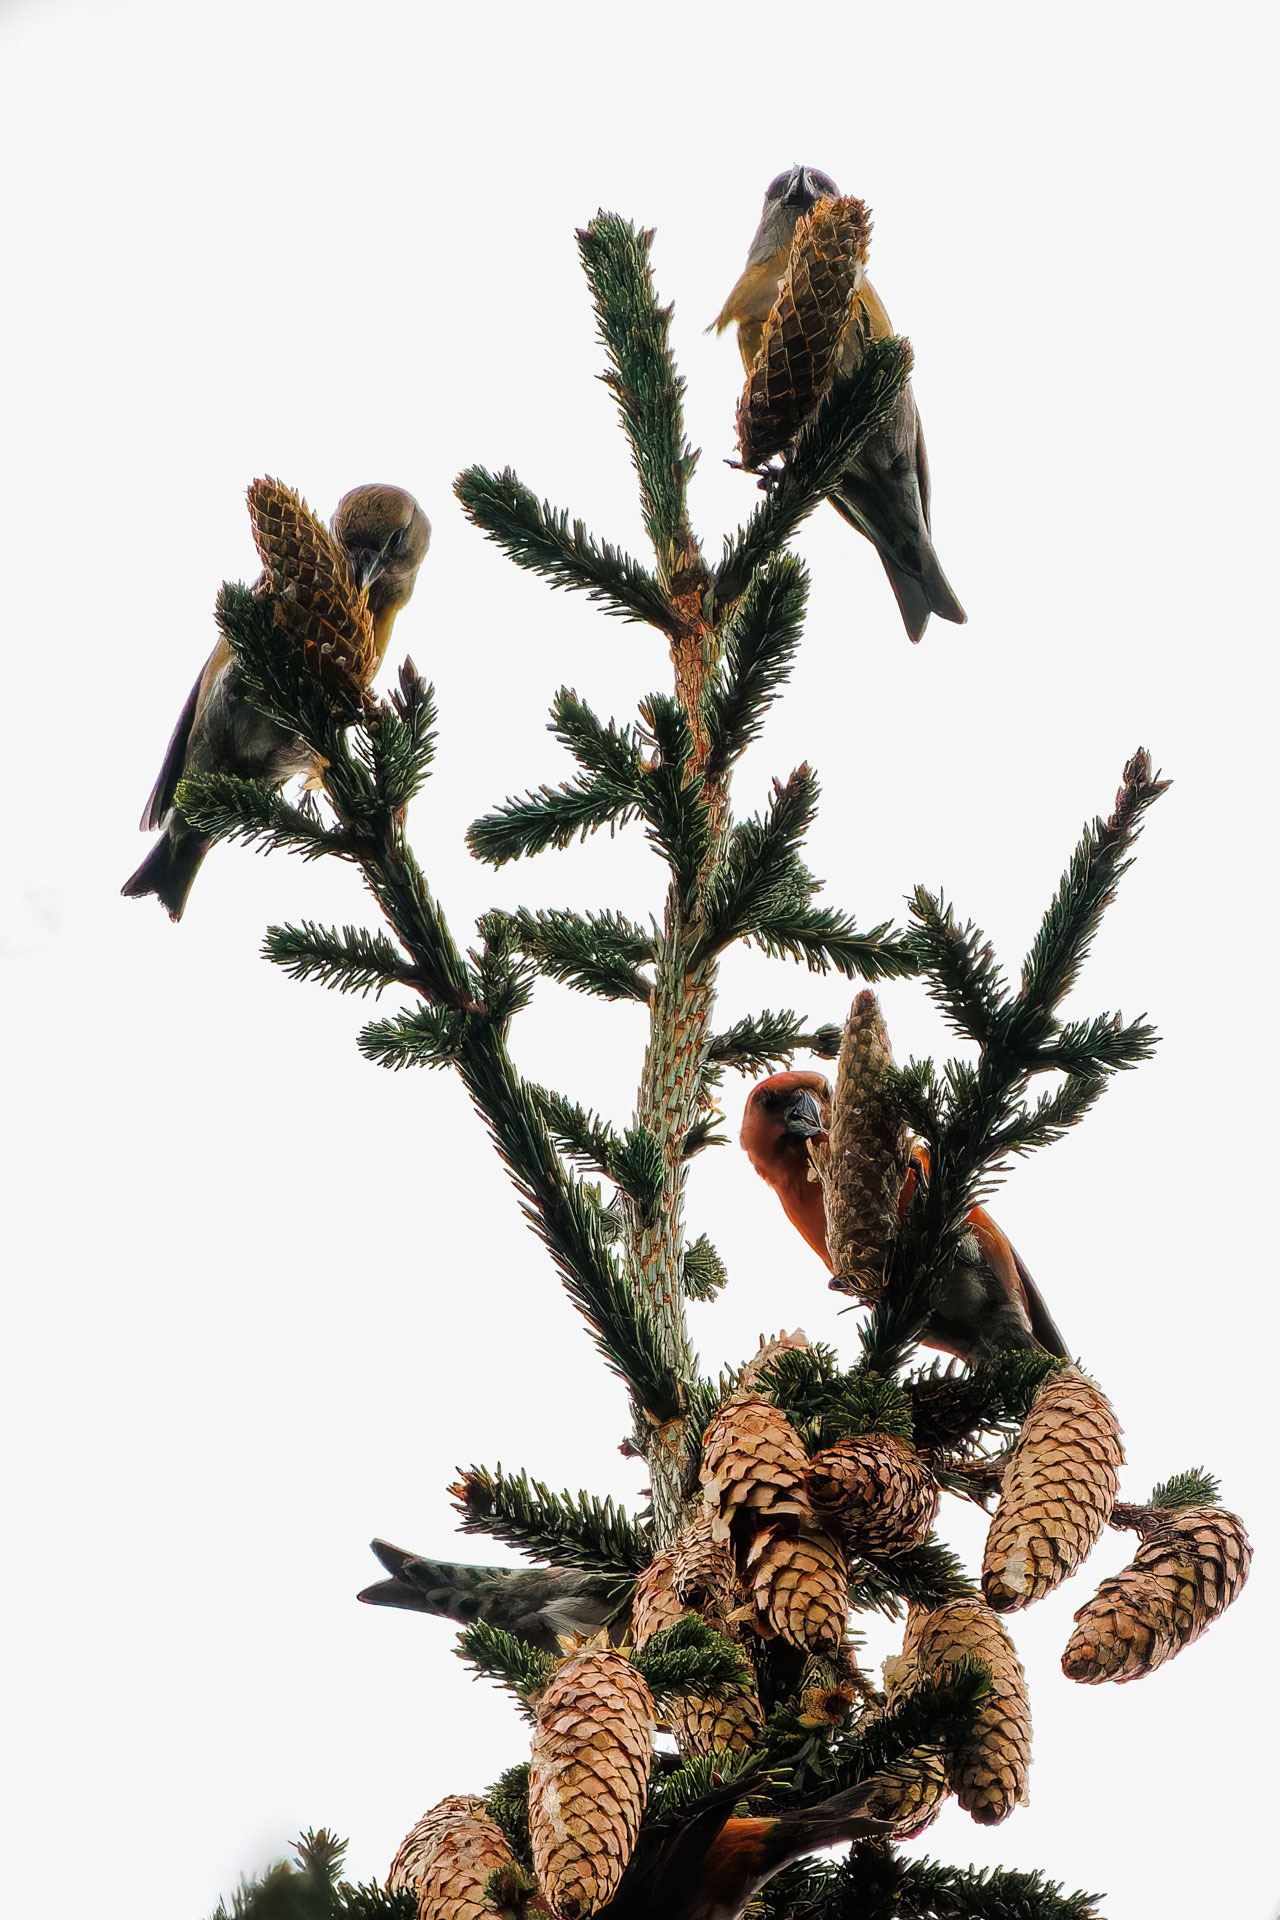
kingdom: Animalia
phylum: Chordata
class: Aves
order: Passeriformes
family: Fringillidae
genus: Loxia
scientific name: Loxia curvirostra
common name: Red crossbill
